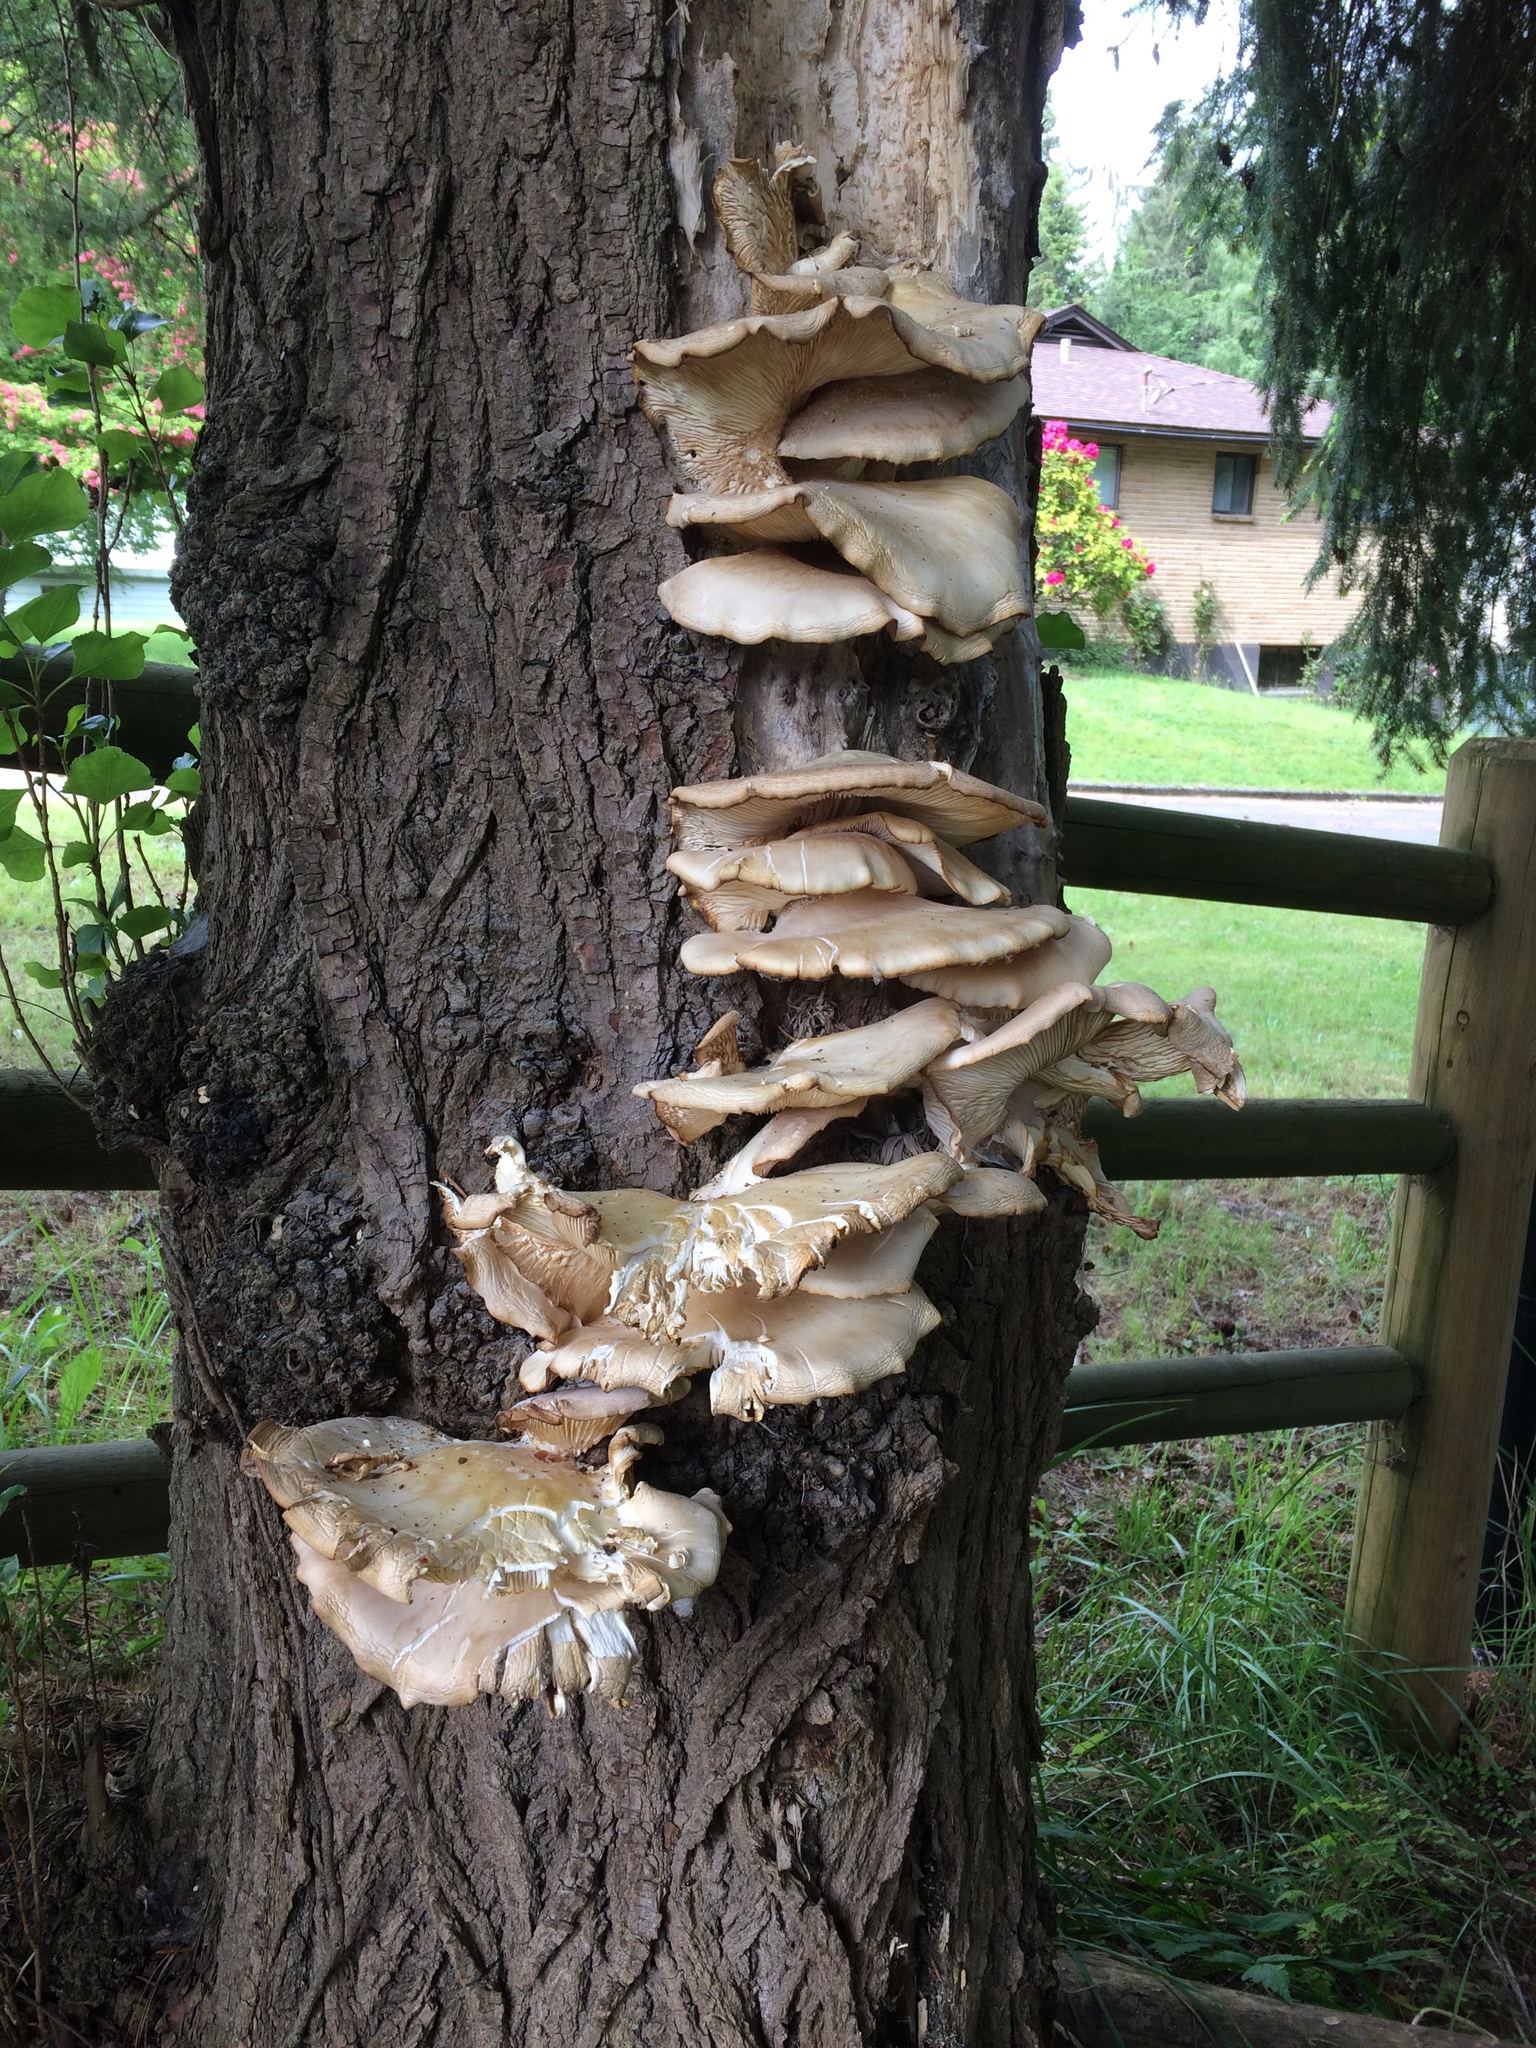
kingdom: Fungi
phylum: Basidiomycota
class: Agaricomycetes
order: Agaricales
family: Pleurotaceae
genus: Pleurotus
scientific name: Pleurotus ostreatus
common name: Oyster mushroom
